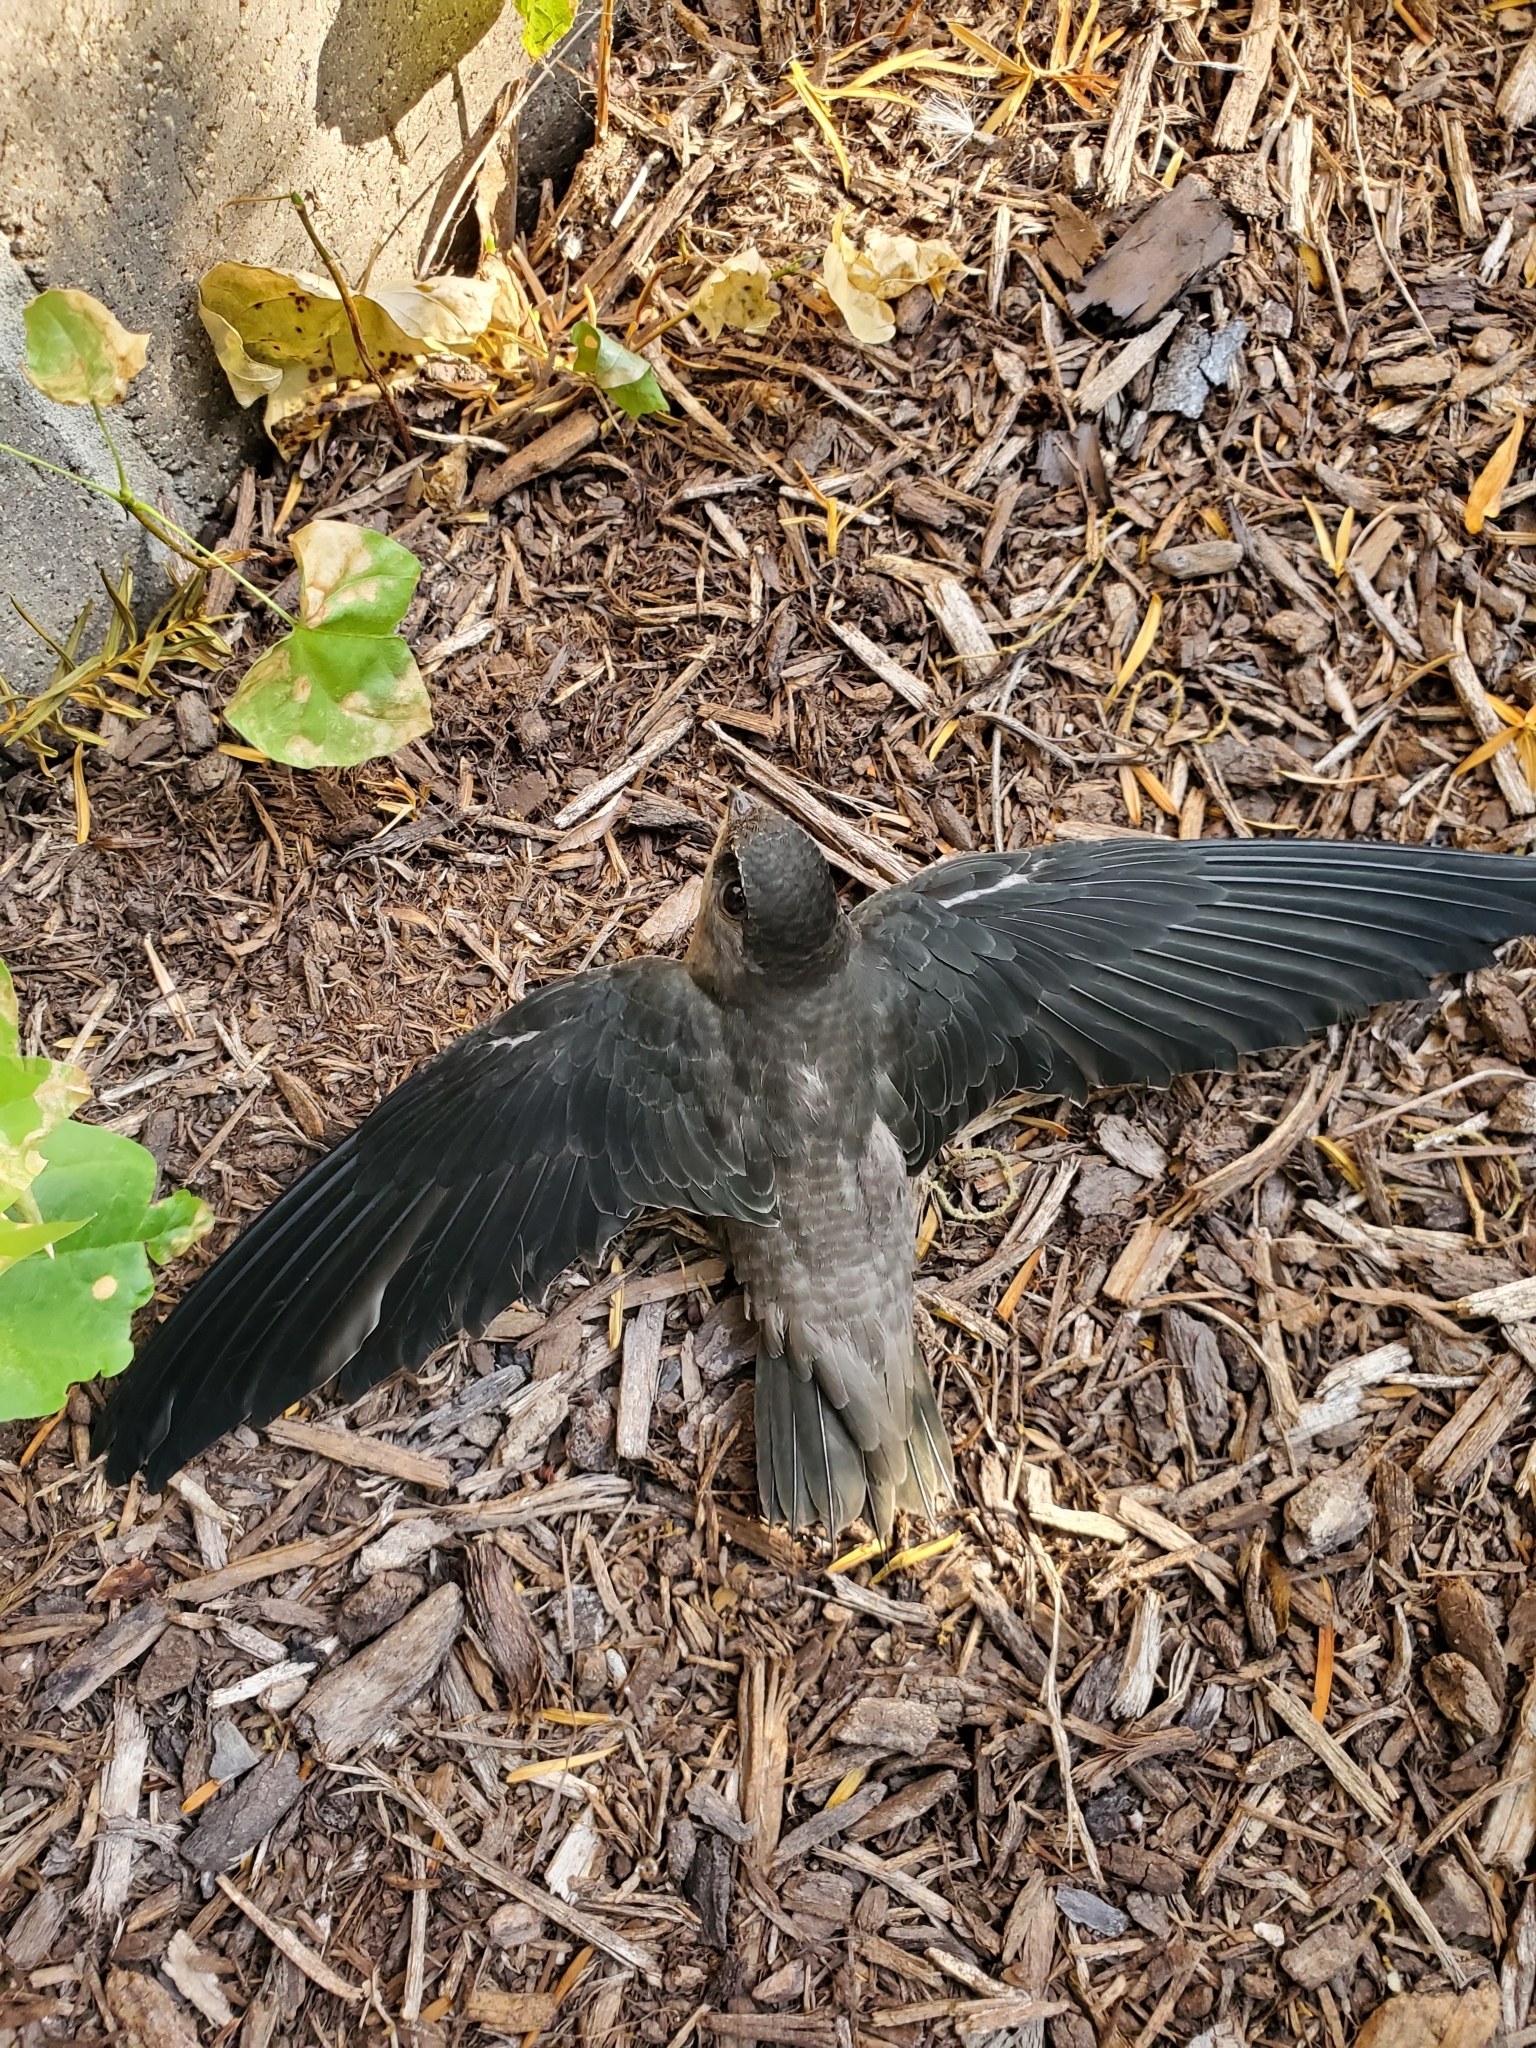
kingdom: Animalia
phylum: Chordata
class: Aves
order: Apodiformes
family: Apodidae
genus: Chaetura
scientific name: Chaetura pelagica
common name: Chimney swift
